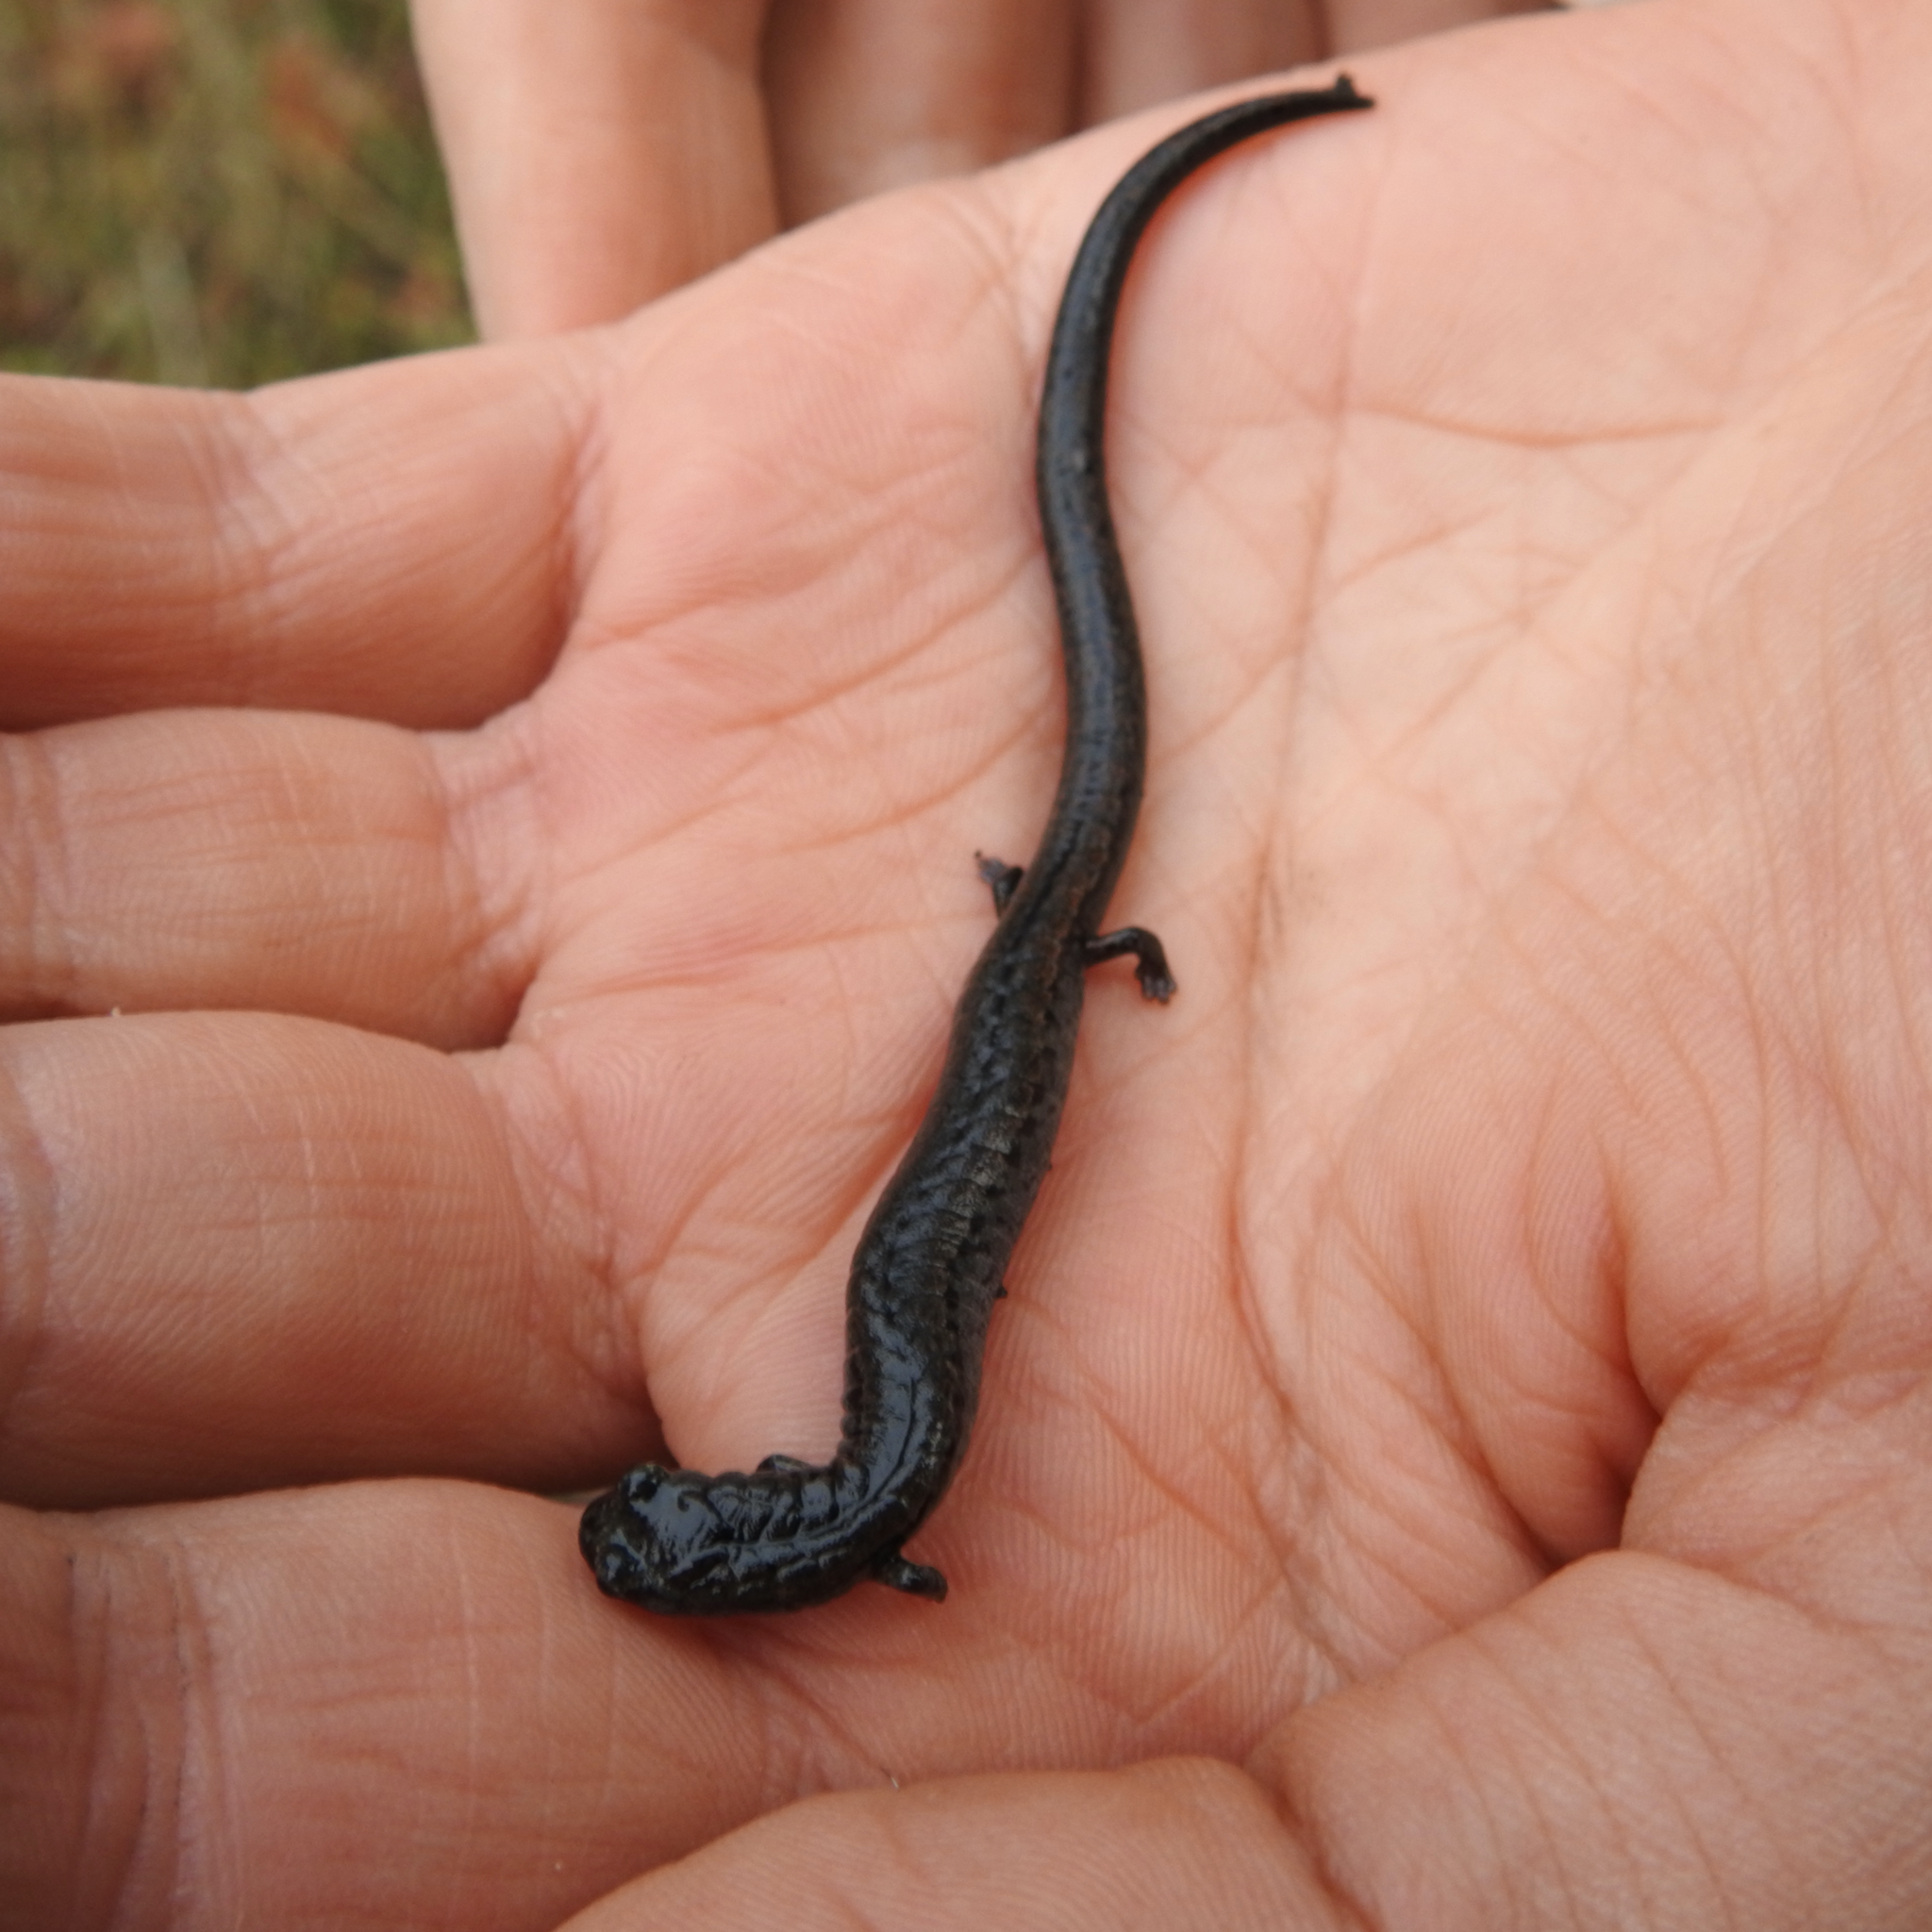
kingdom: Animalia
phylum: Chordata
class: Amphibia
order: Caudata
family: Plethodontidae
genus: Batrachoseps
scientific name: Batrachoseps attenuatus
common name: California slender salamander
